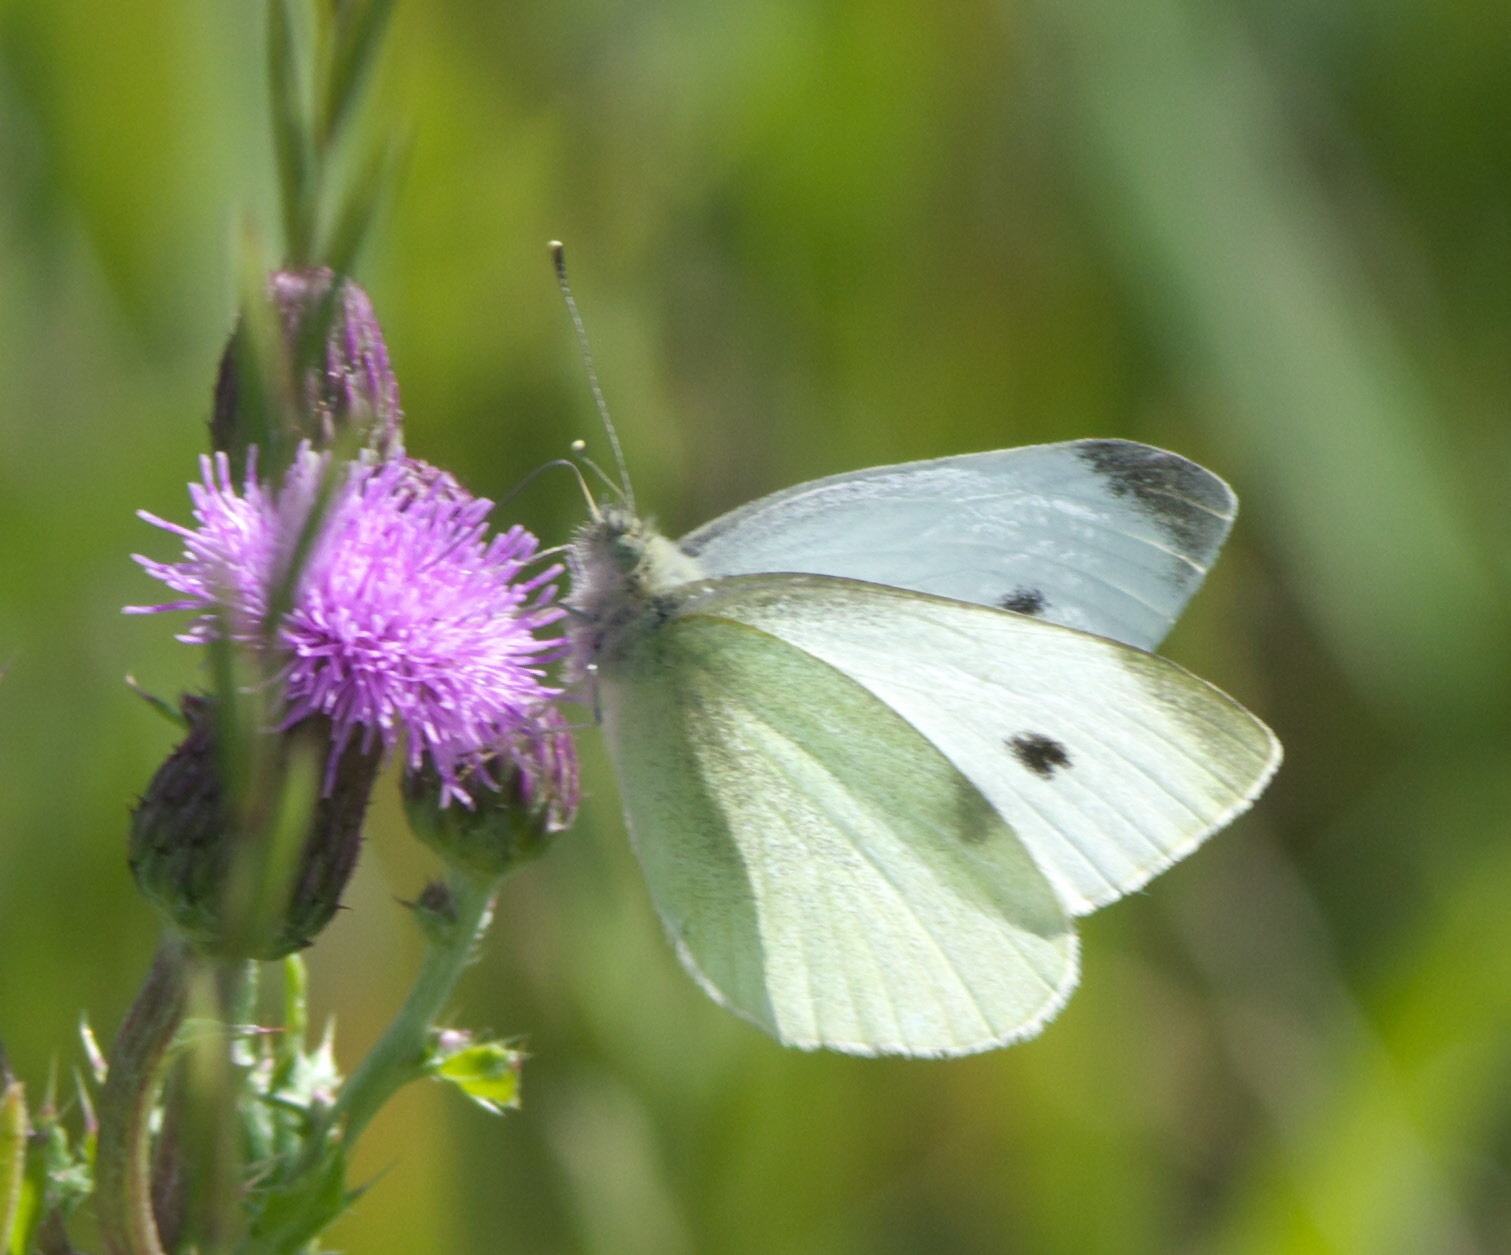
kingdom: Animalia
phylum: Arthropoda
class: Insecta
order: Lepidoptera
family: Pieridae
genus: Pieris
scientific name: Pieris rapae
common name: Small white
